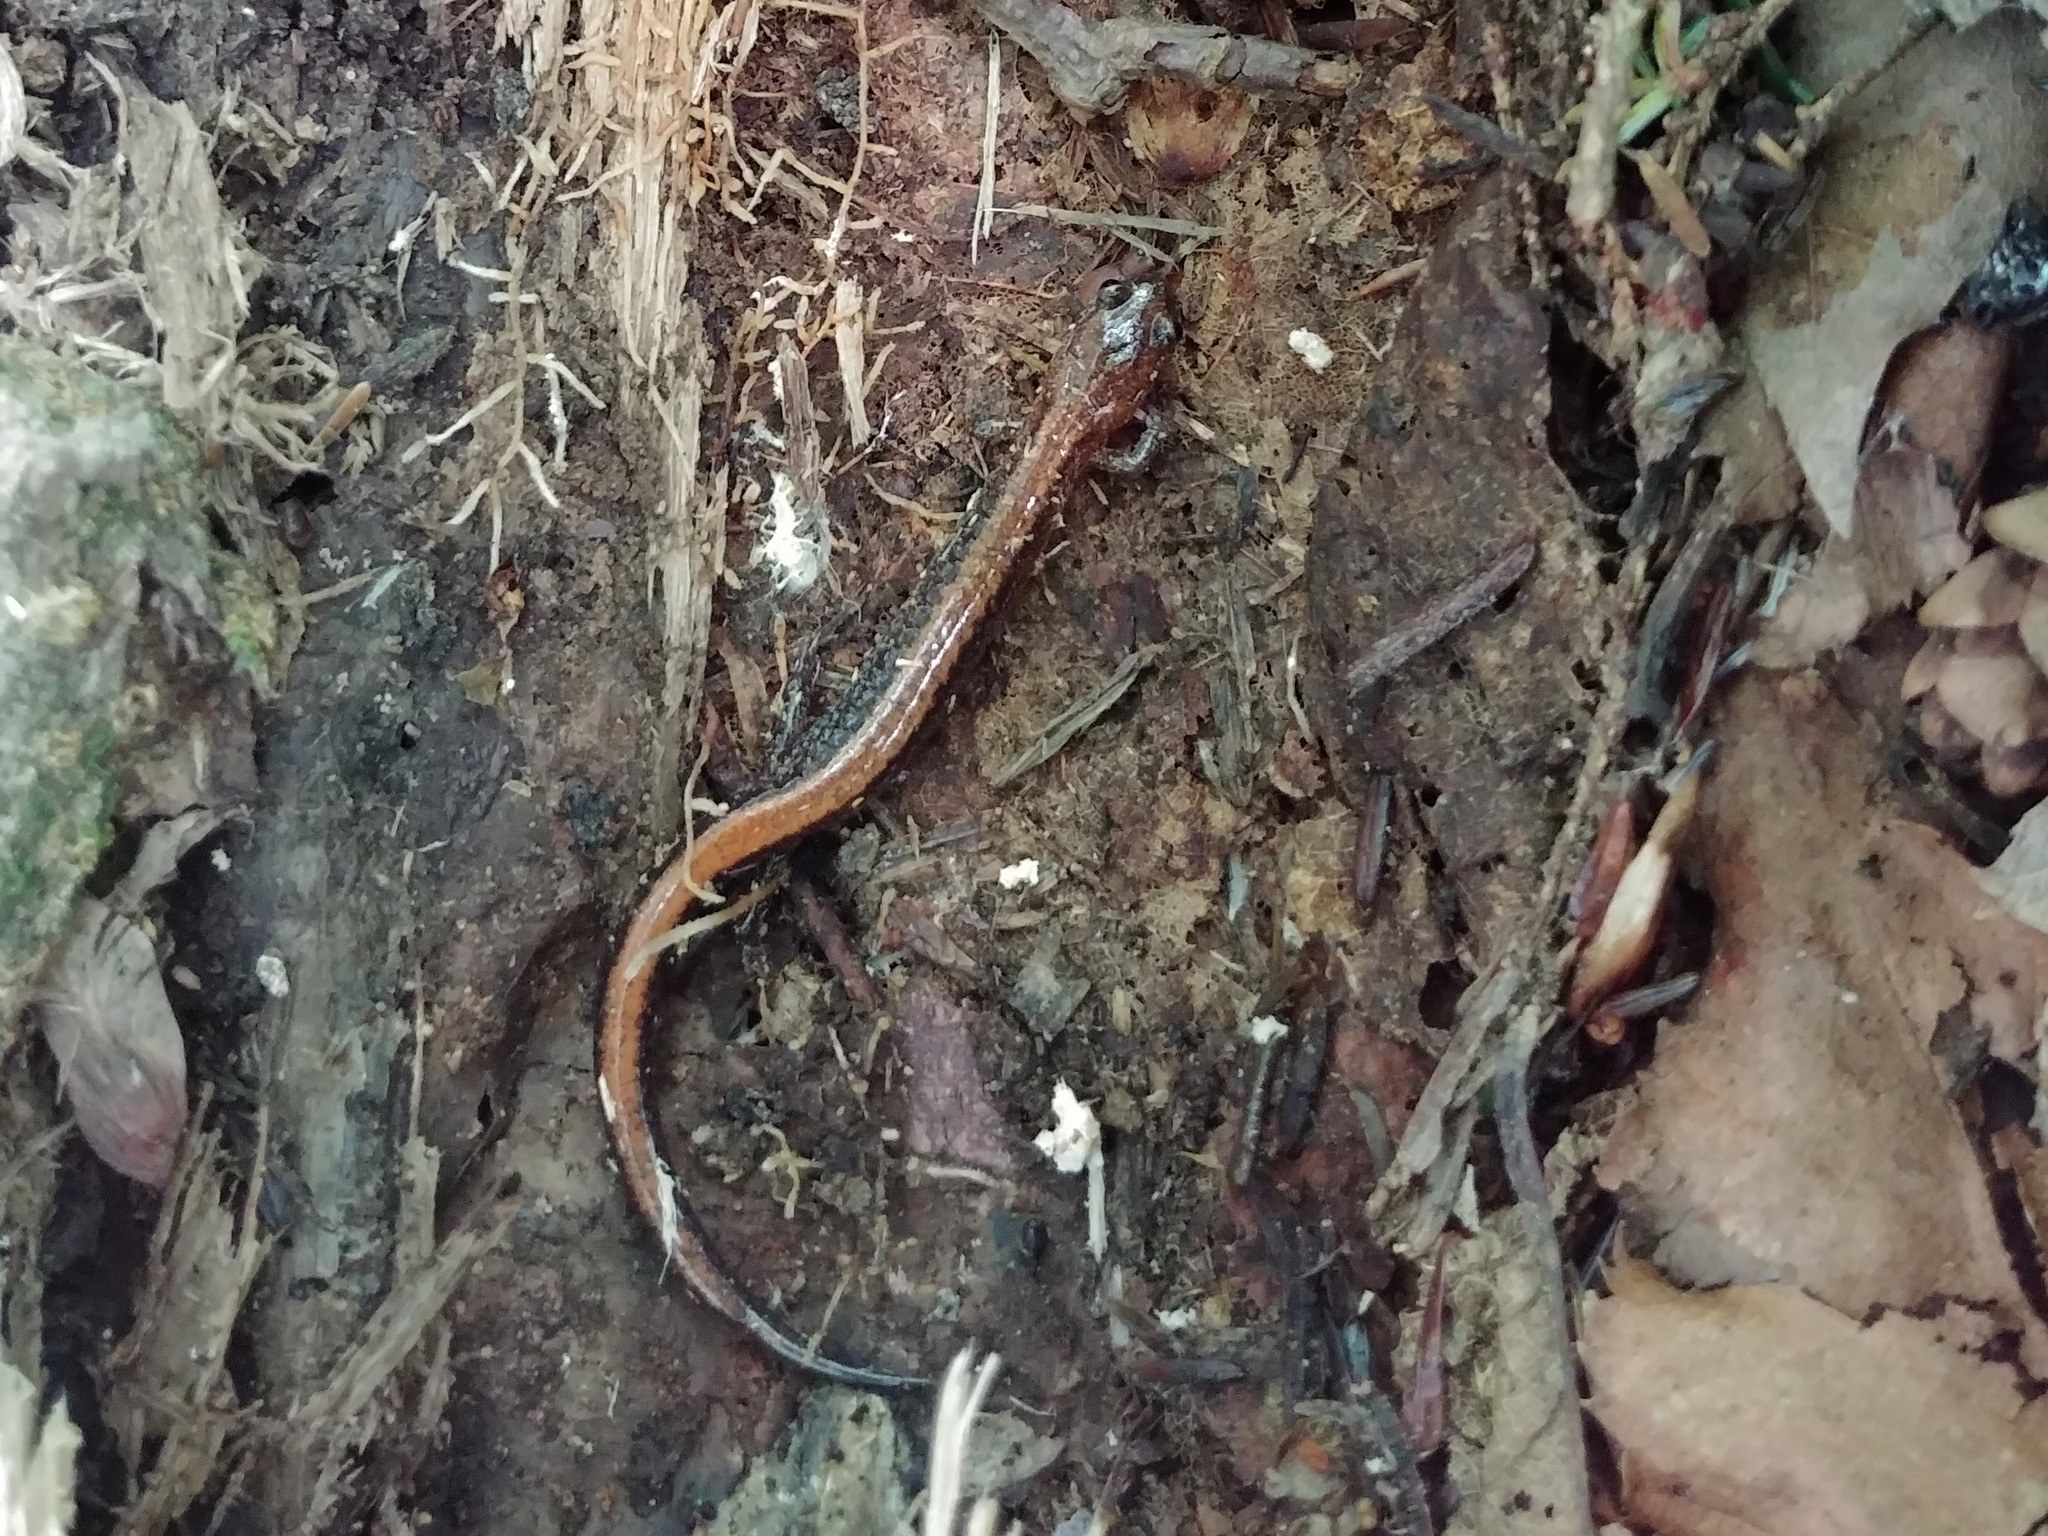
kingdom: Animalia
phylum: Chordata
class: Amphibia
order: Caudata
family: Plethodontidae
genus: Plethodon
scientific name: Plethodon cinereus
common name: Redback salamander
